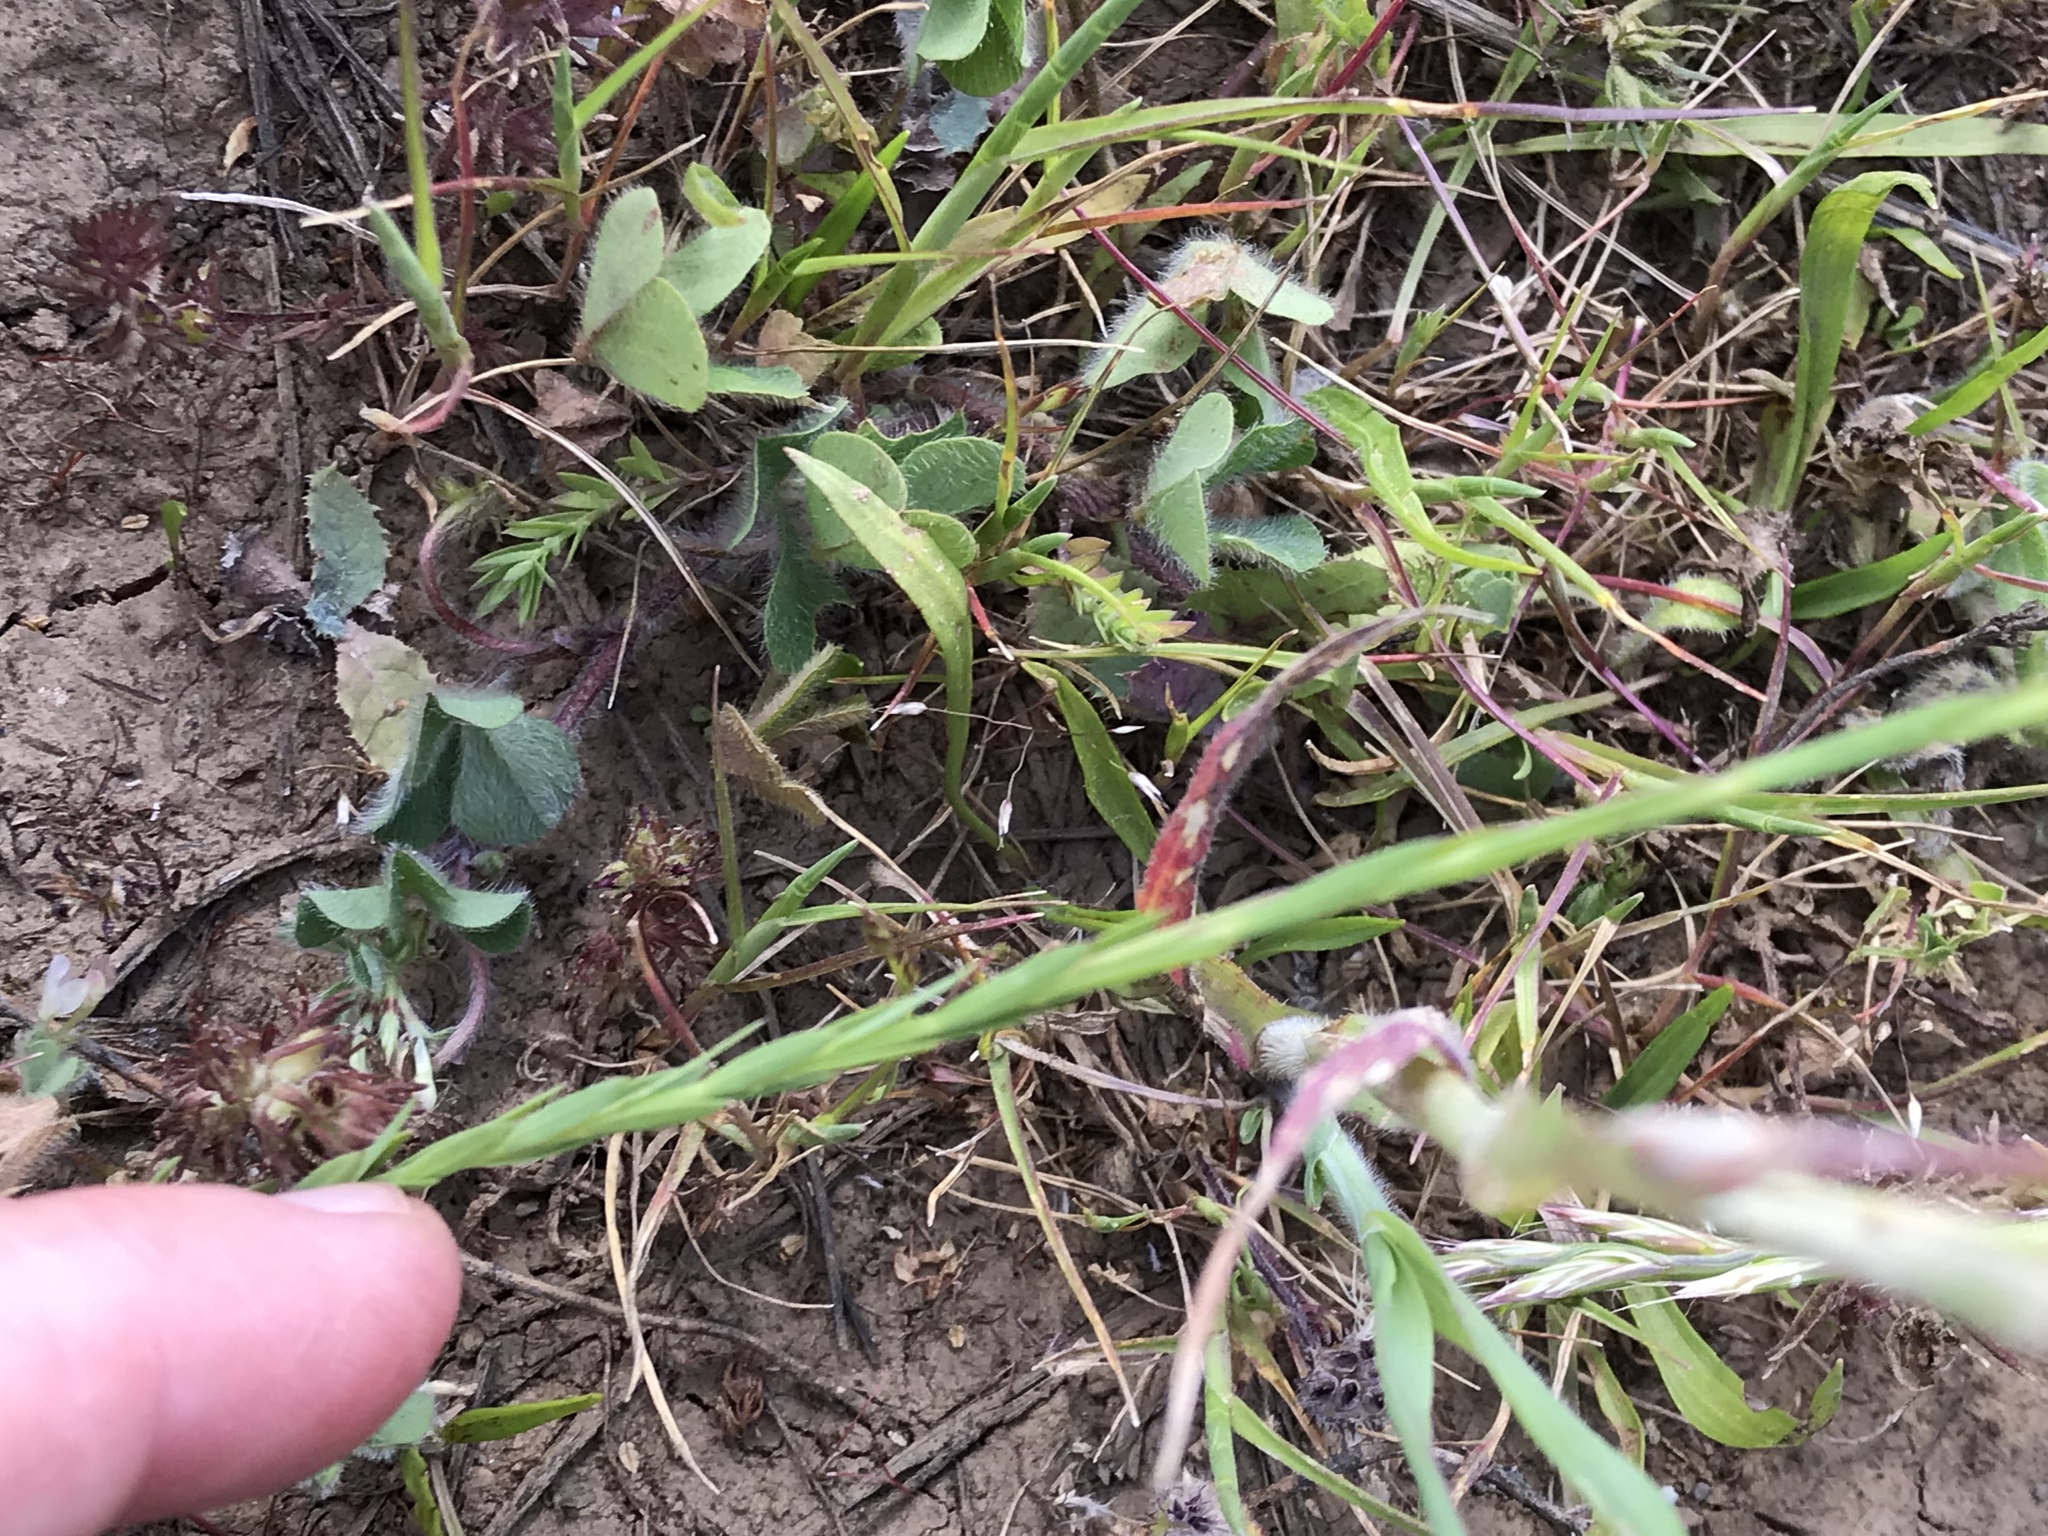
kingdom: Plantae
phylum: Tracheophyta
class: Magnoliopsida
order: Malpighiales
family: Linaceae
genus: Linum
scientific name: Linum bienne
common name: Pale flax
